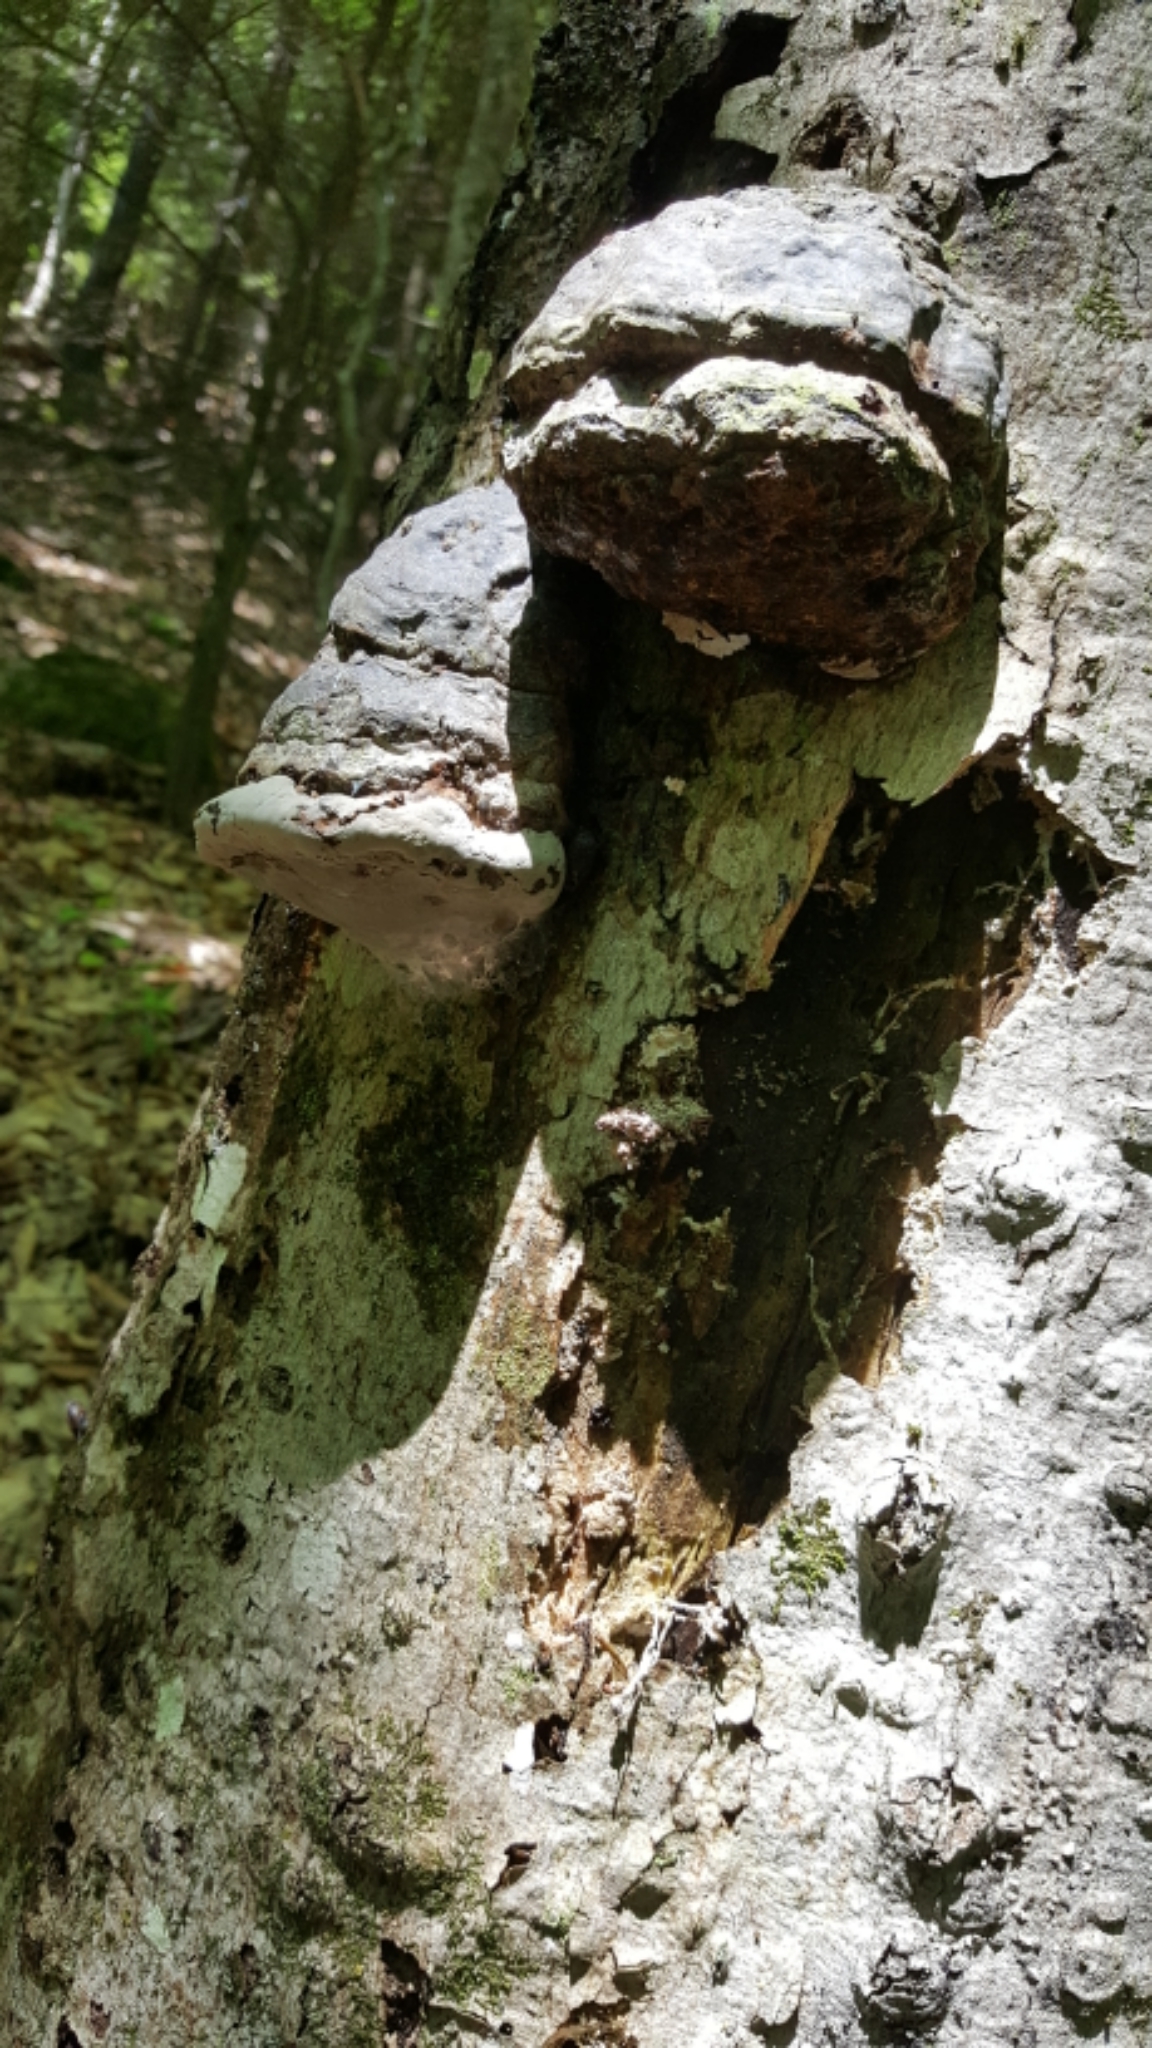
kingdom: Fungi
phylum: Basidiomycota
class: Agaricomycetes
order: Polyporales
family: Polyporaceae
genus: Fomes
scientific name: Fomes fomentarius
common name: Hoof fungus
